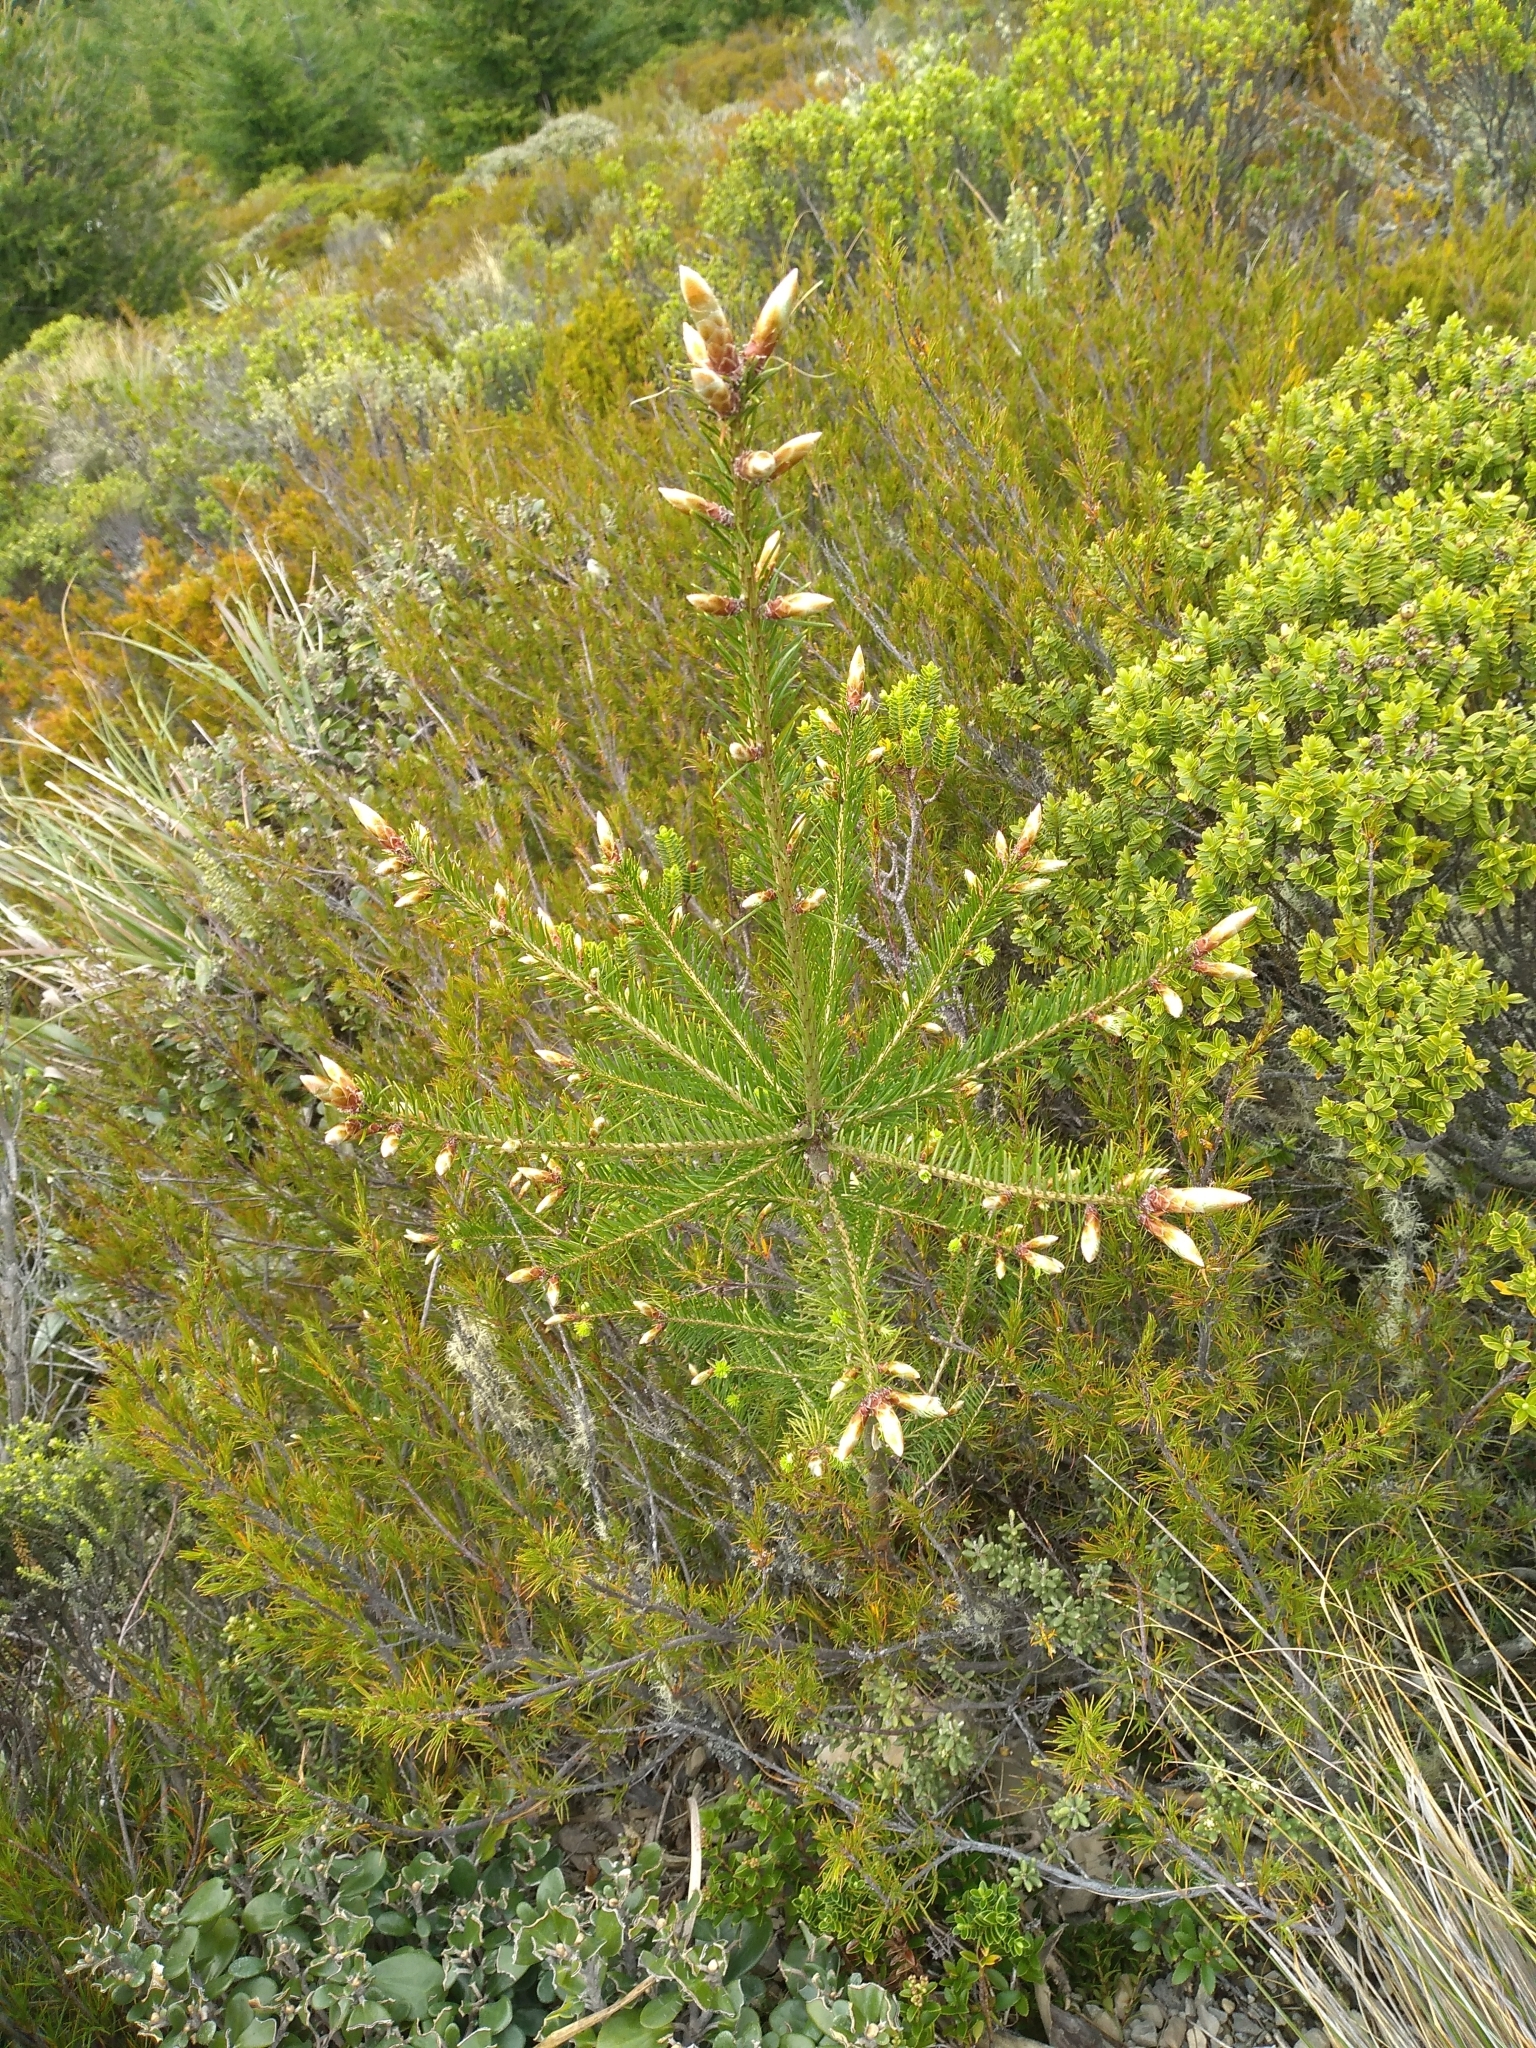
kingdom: Plantae
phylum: Tracheophyta
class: Pinopsida
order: Pinales
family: Pinaceae
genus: Pseudotsuga
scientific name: Pseudotsuga menziesii
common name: Douglas fir
